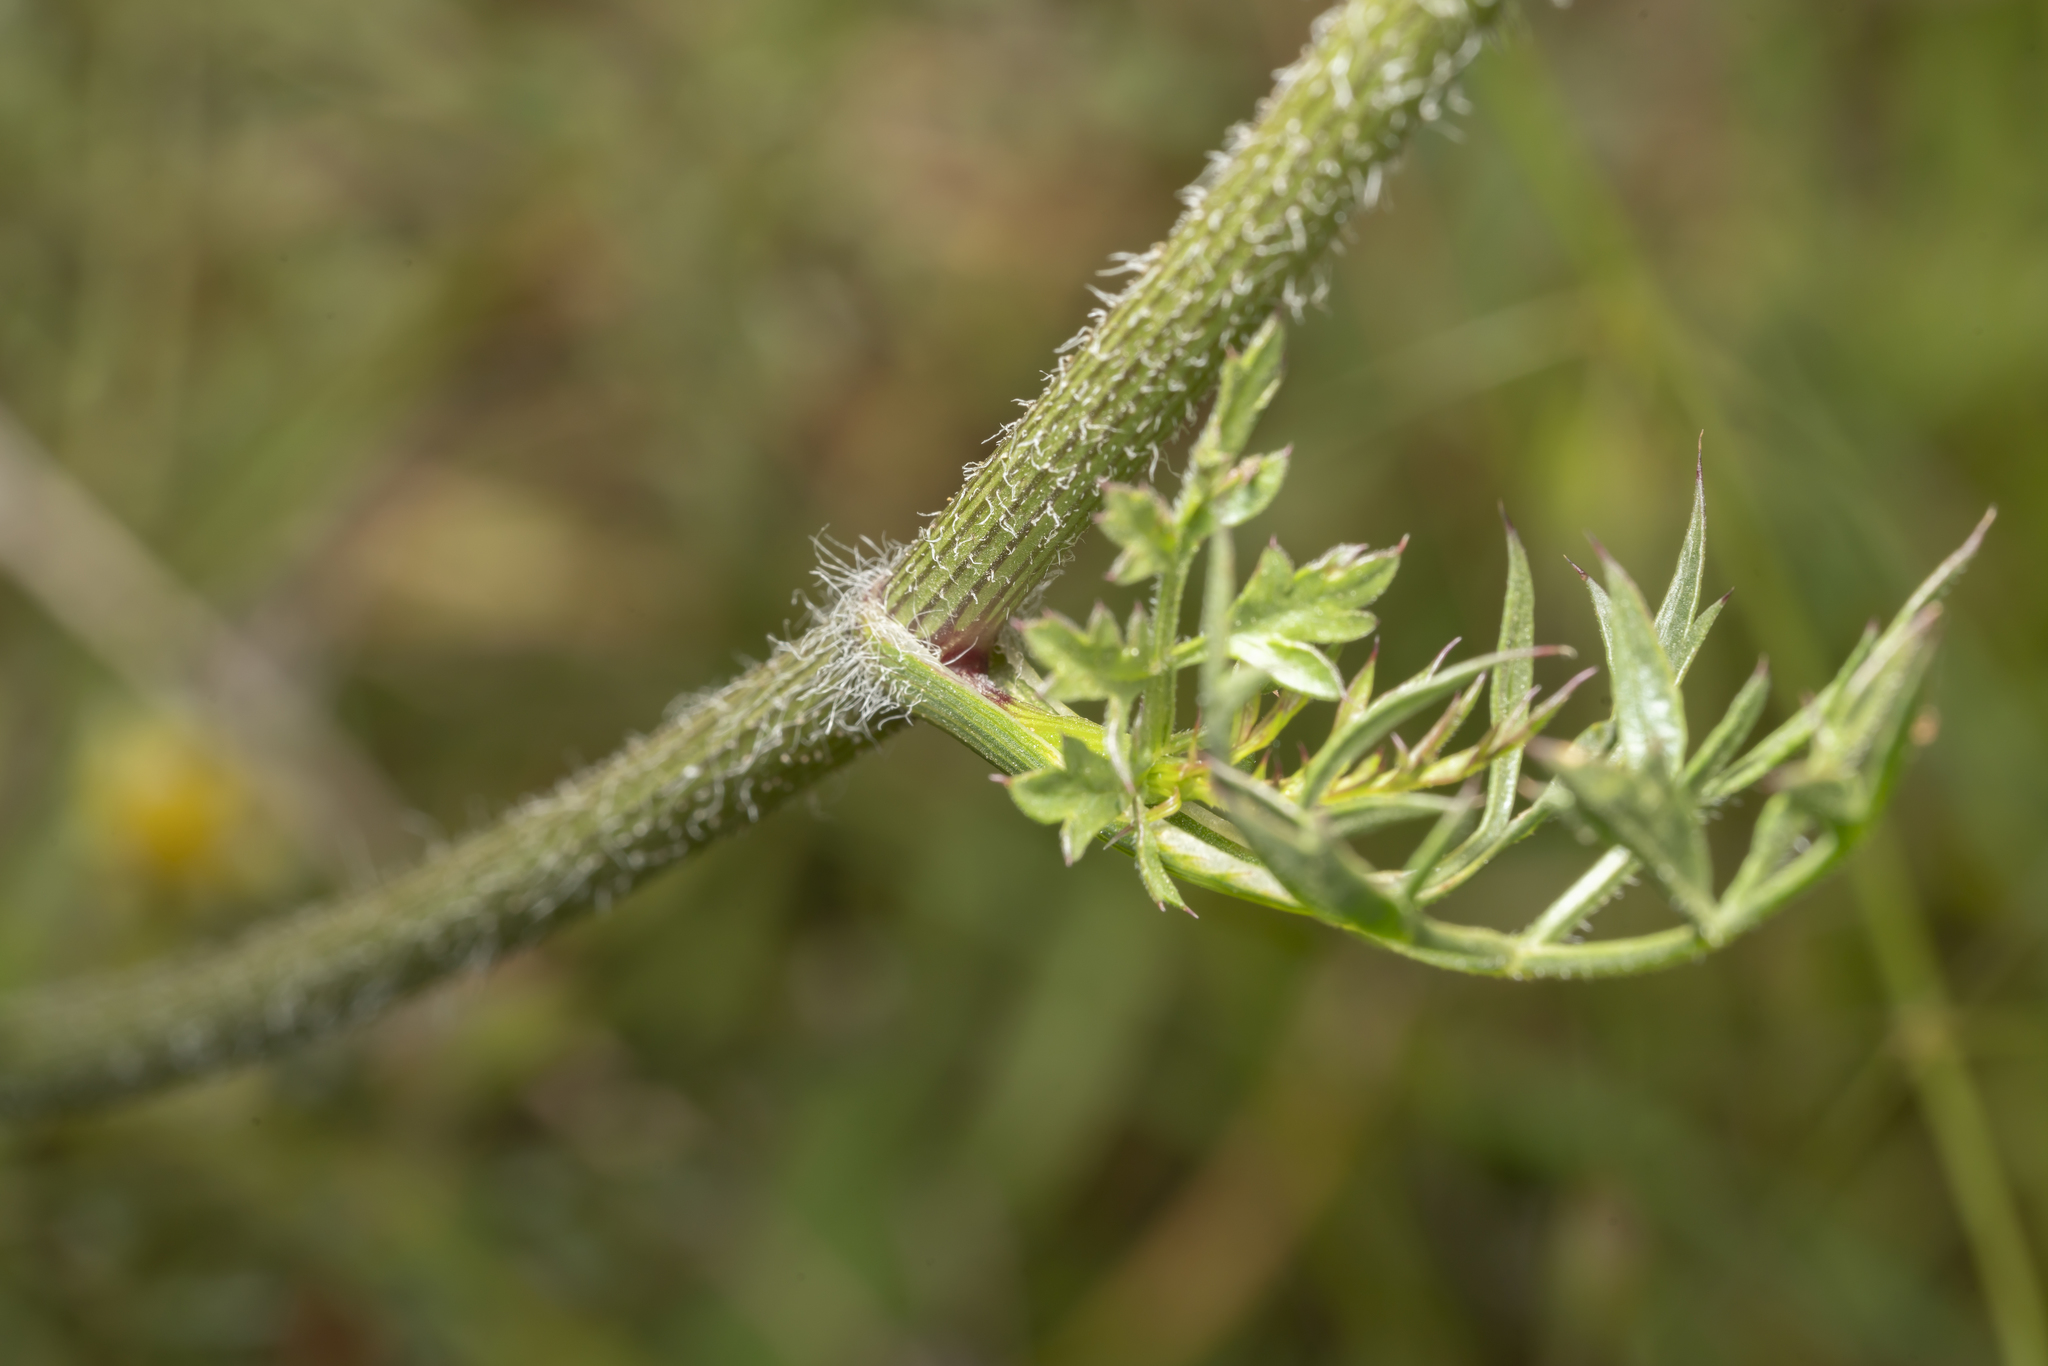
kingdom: Plantae
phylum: Tracheophyta
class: Magnoliopsida
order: Apiales
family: Apiaceae
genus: Daucus
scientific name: Daucus carota
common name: Wild carrot
